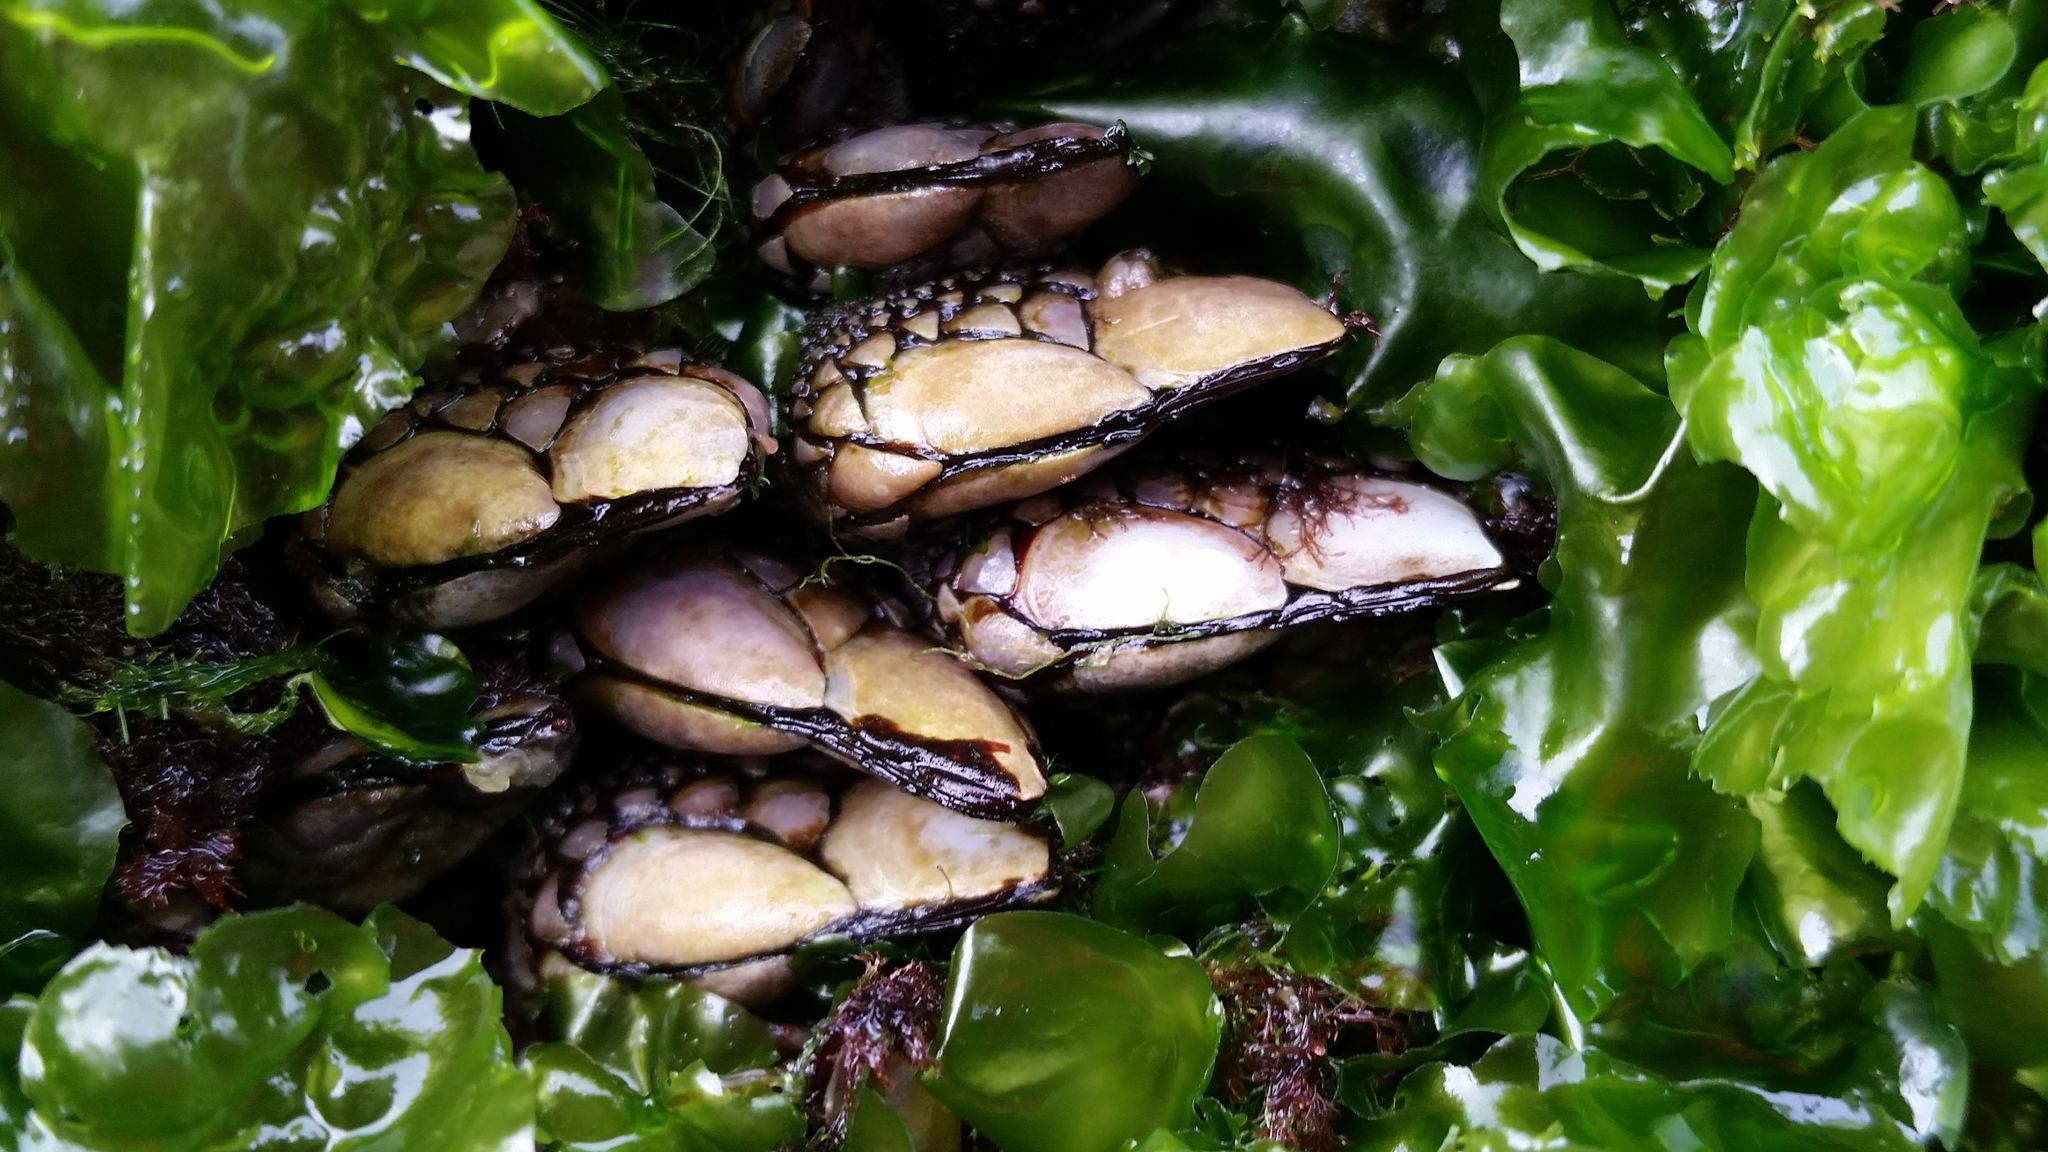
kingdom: Animalia
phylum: Arthropoda
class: Maxillopoda
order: Pedunculata
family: Pollicipedidae
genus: Pollicipes
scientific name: Pollicipes polymerus
